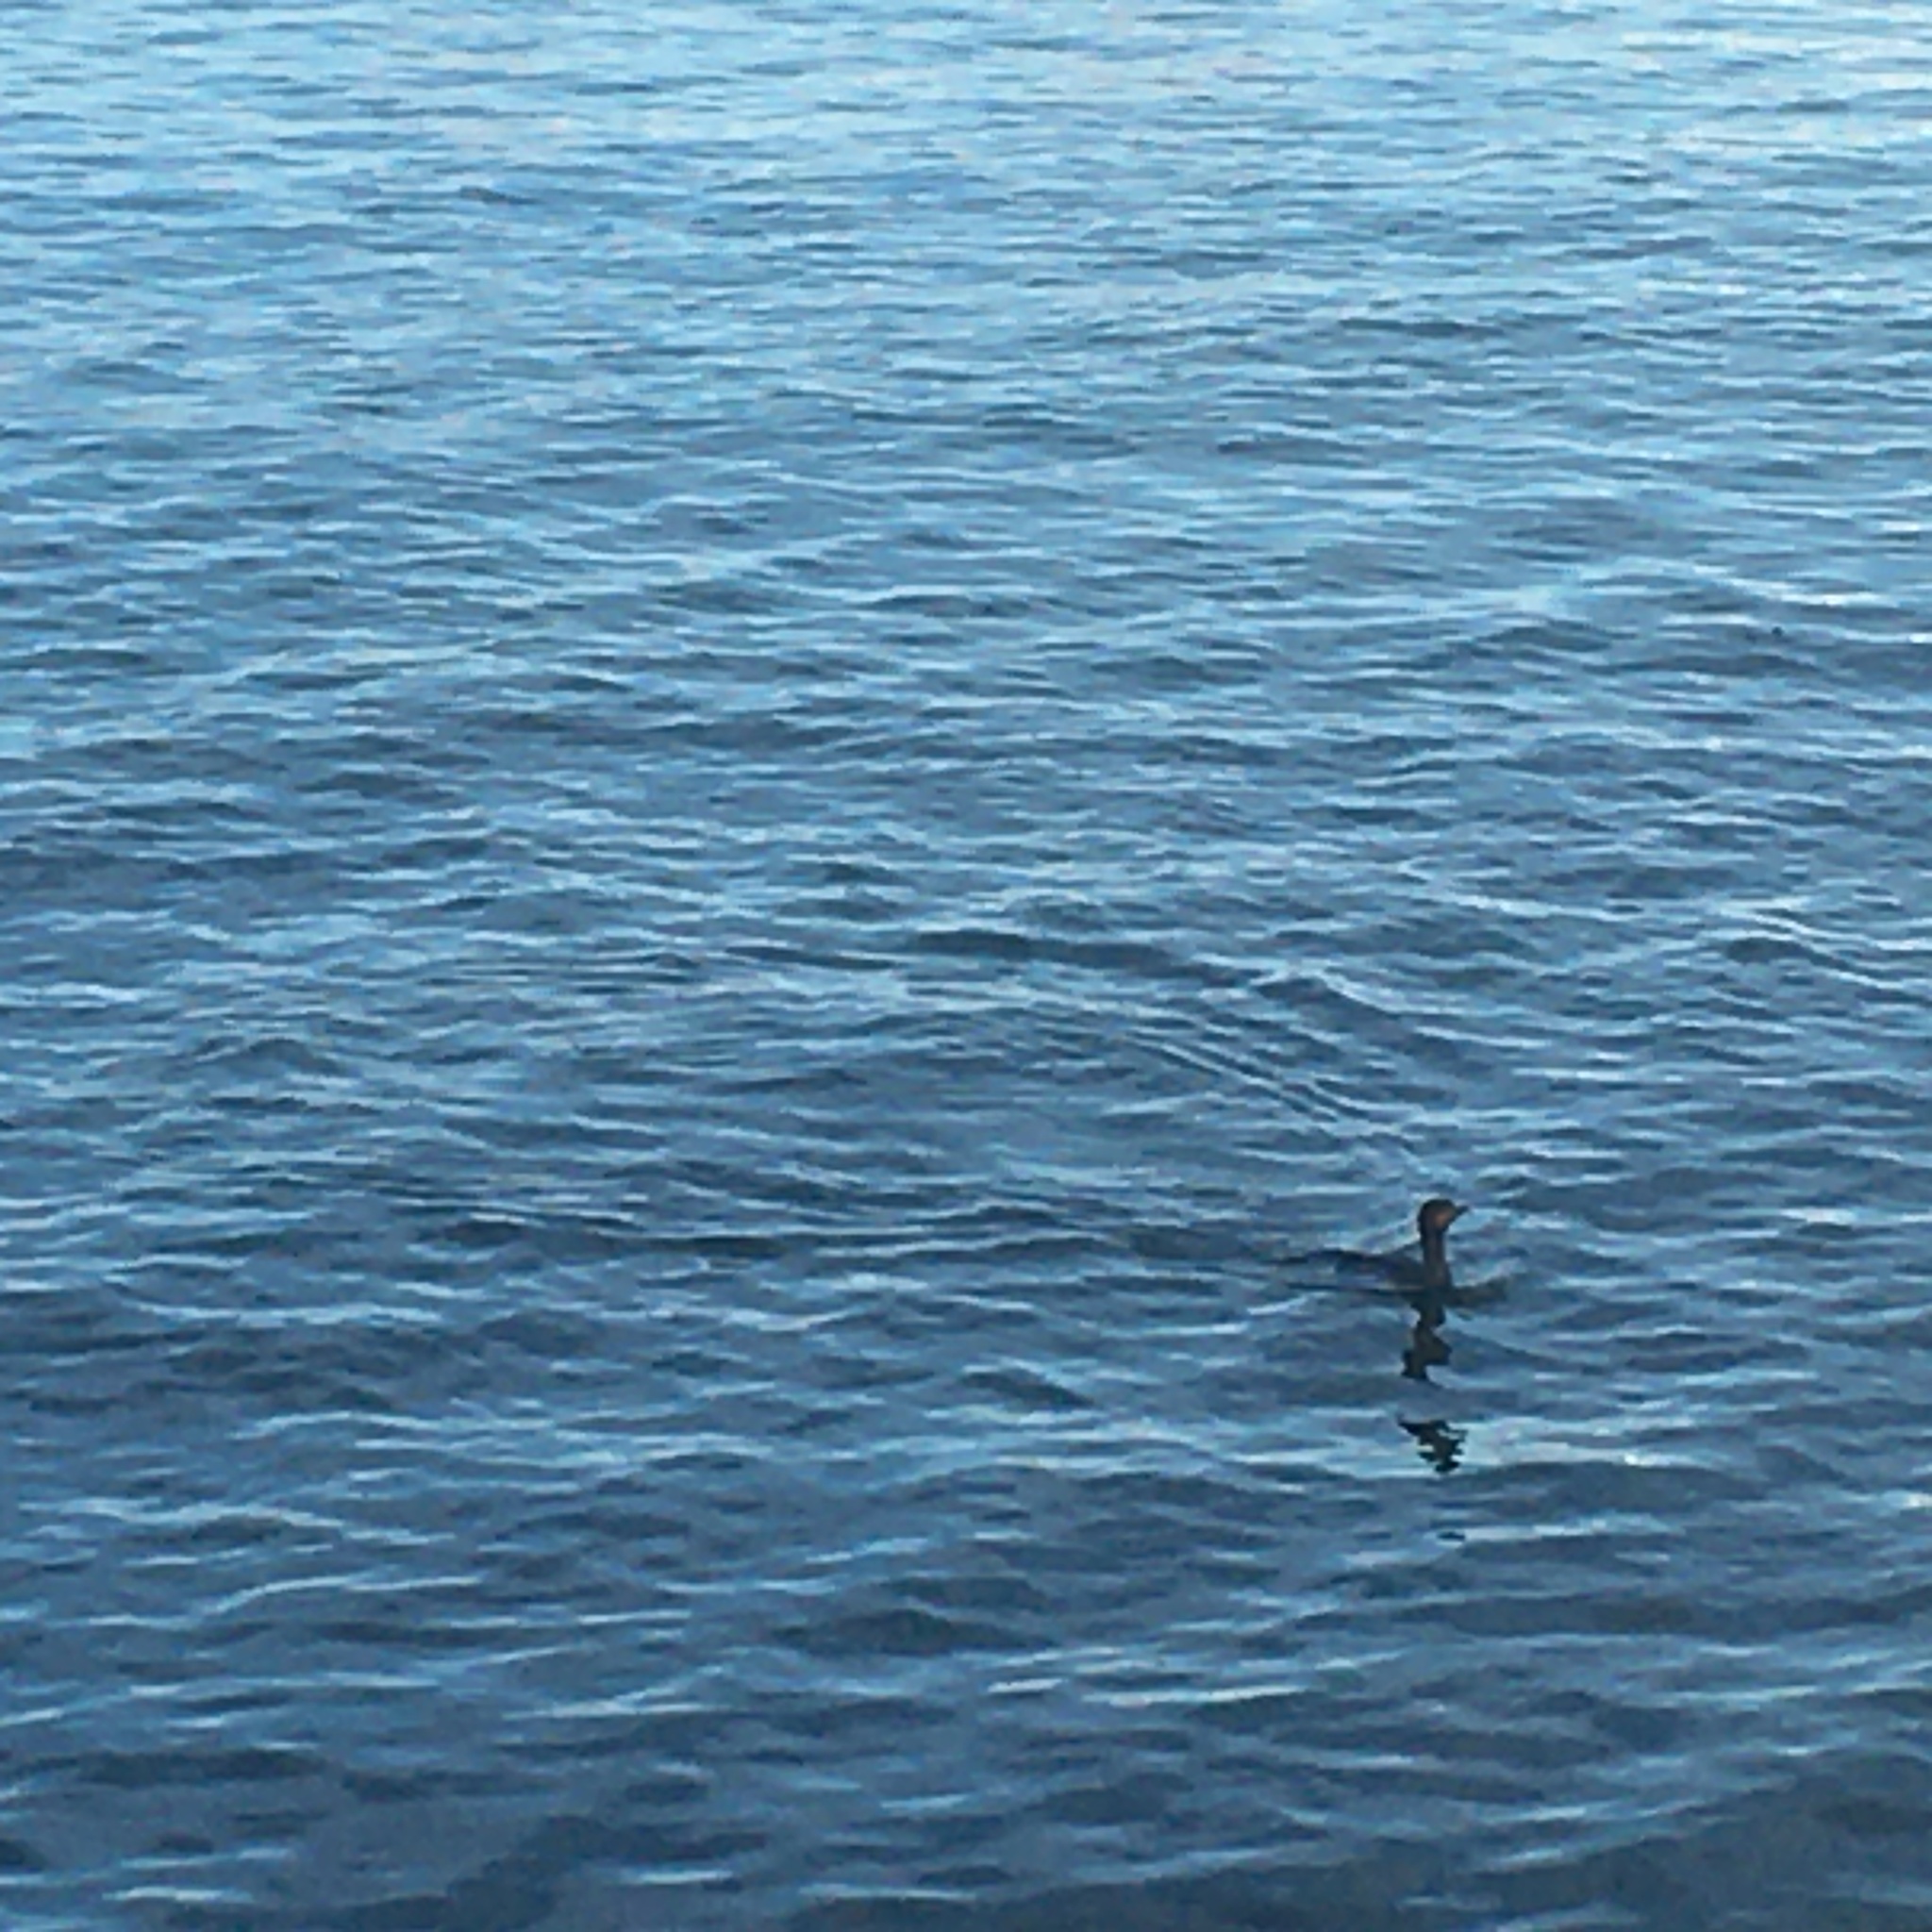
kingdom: Animalia
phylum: Chordata
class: Aves
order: Suliformes
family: Phalacrocoracidae
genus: Phalacrocorax
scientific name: Phalacrocorax auritus
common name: Double-crested cormorant
